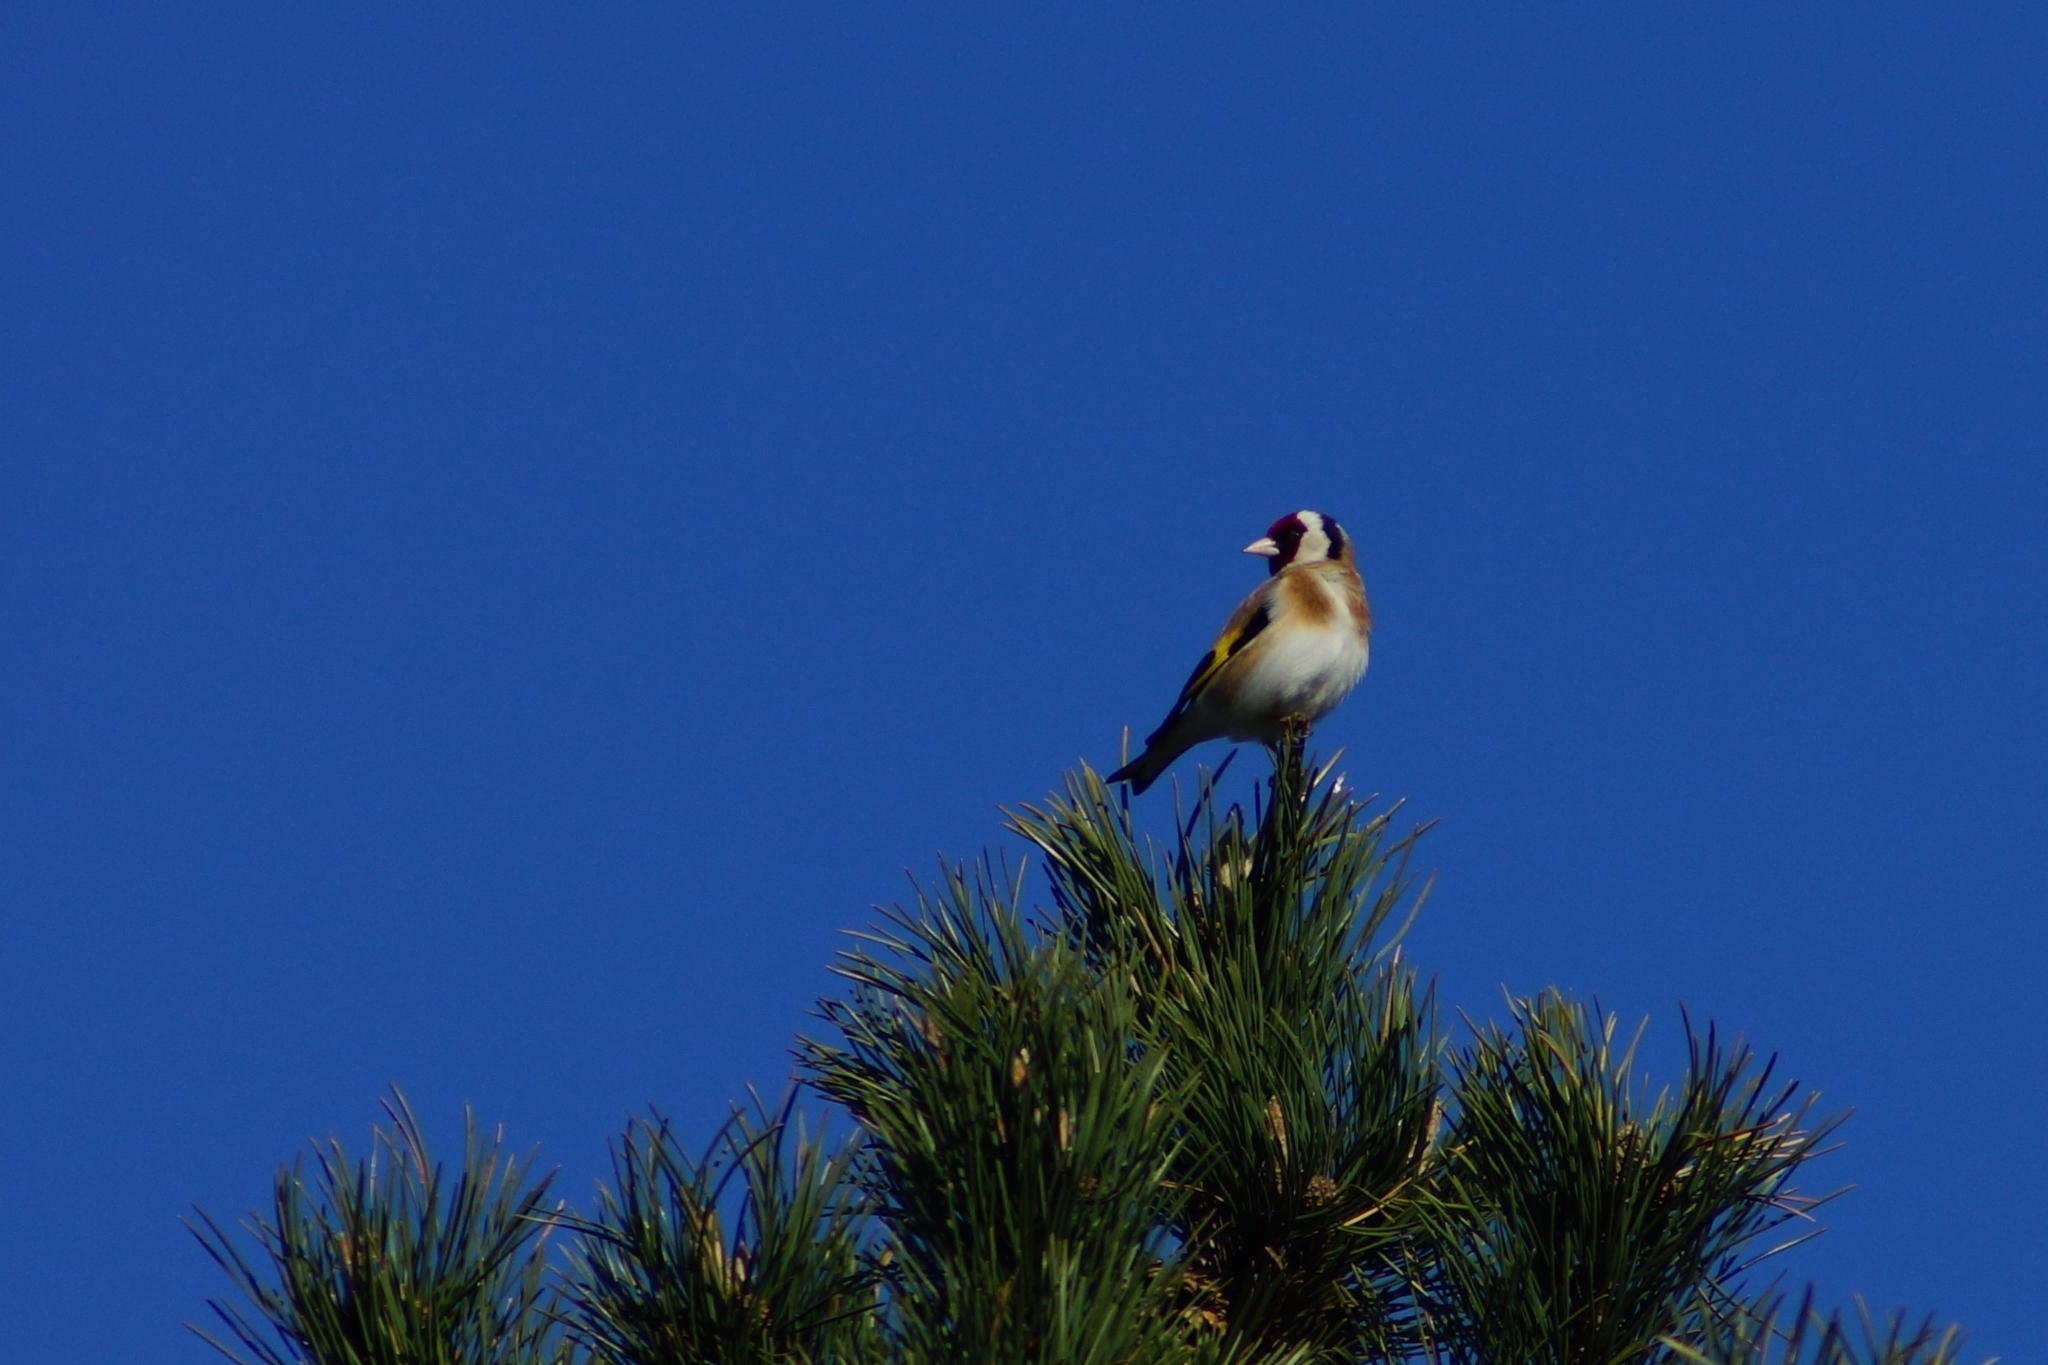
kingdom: Animalia
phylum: Chordata
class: Aves
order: Passeriformes
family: Fringillidae
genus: Carduelis
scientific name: Carduelis carduelis
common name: European goldfinch
